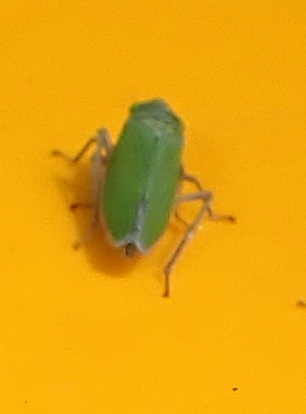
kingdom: Animalia
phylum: Arthropoda
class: Insecta
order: Hemiptera
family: Cicadellidae
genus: Draeculacephala
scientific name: Draeculacephala inscripta
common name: Leafhopper
